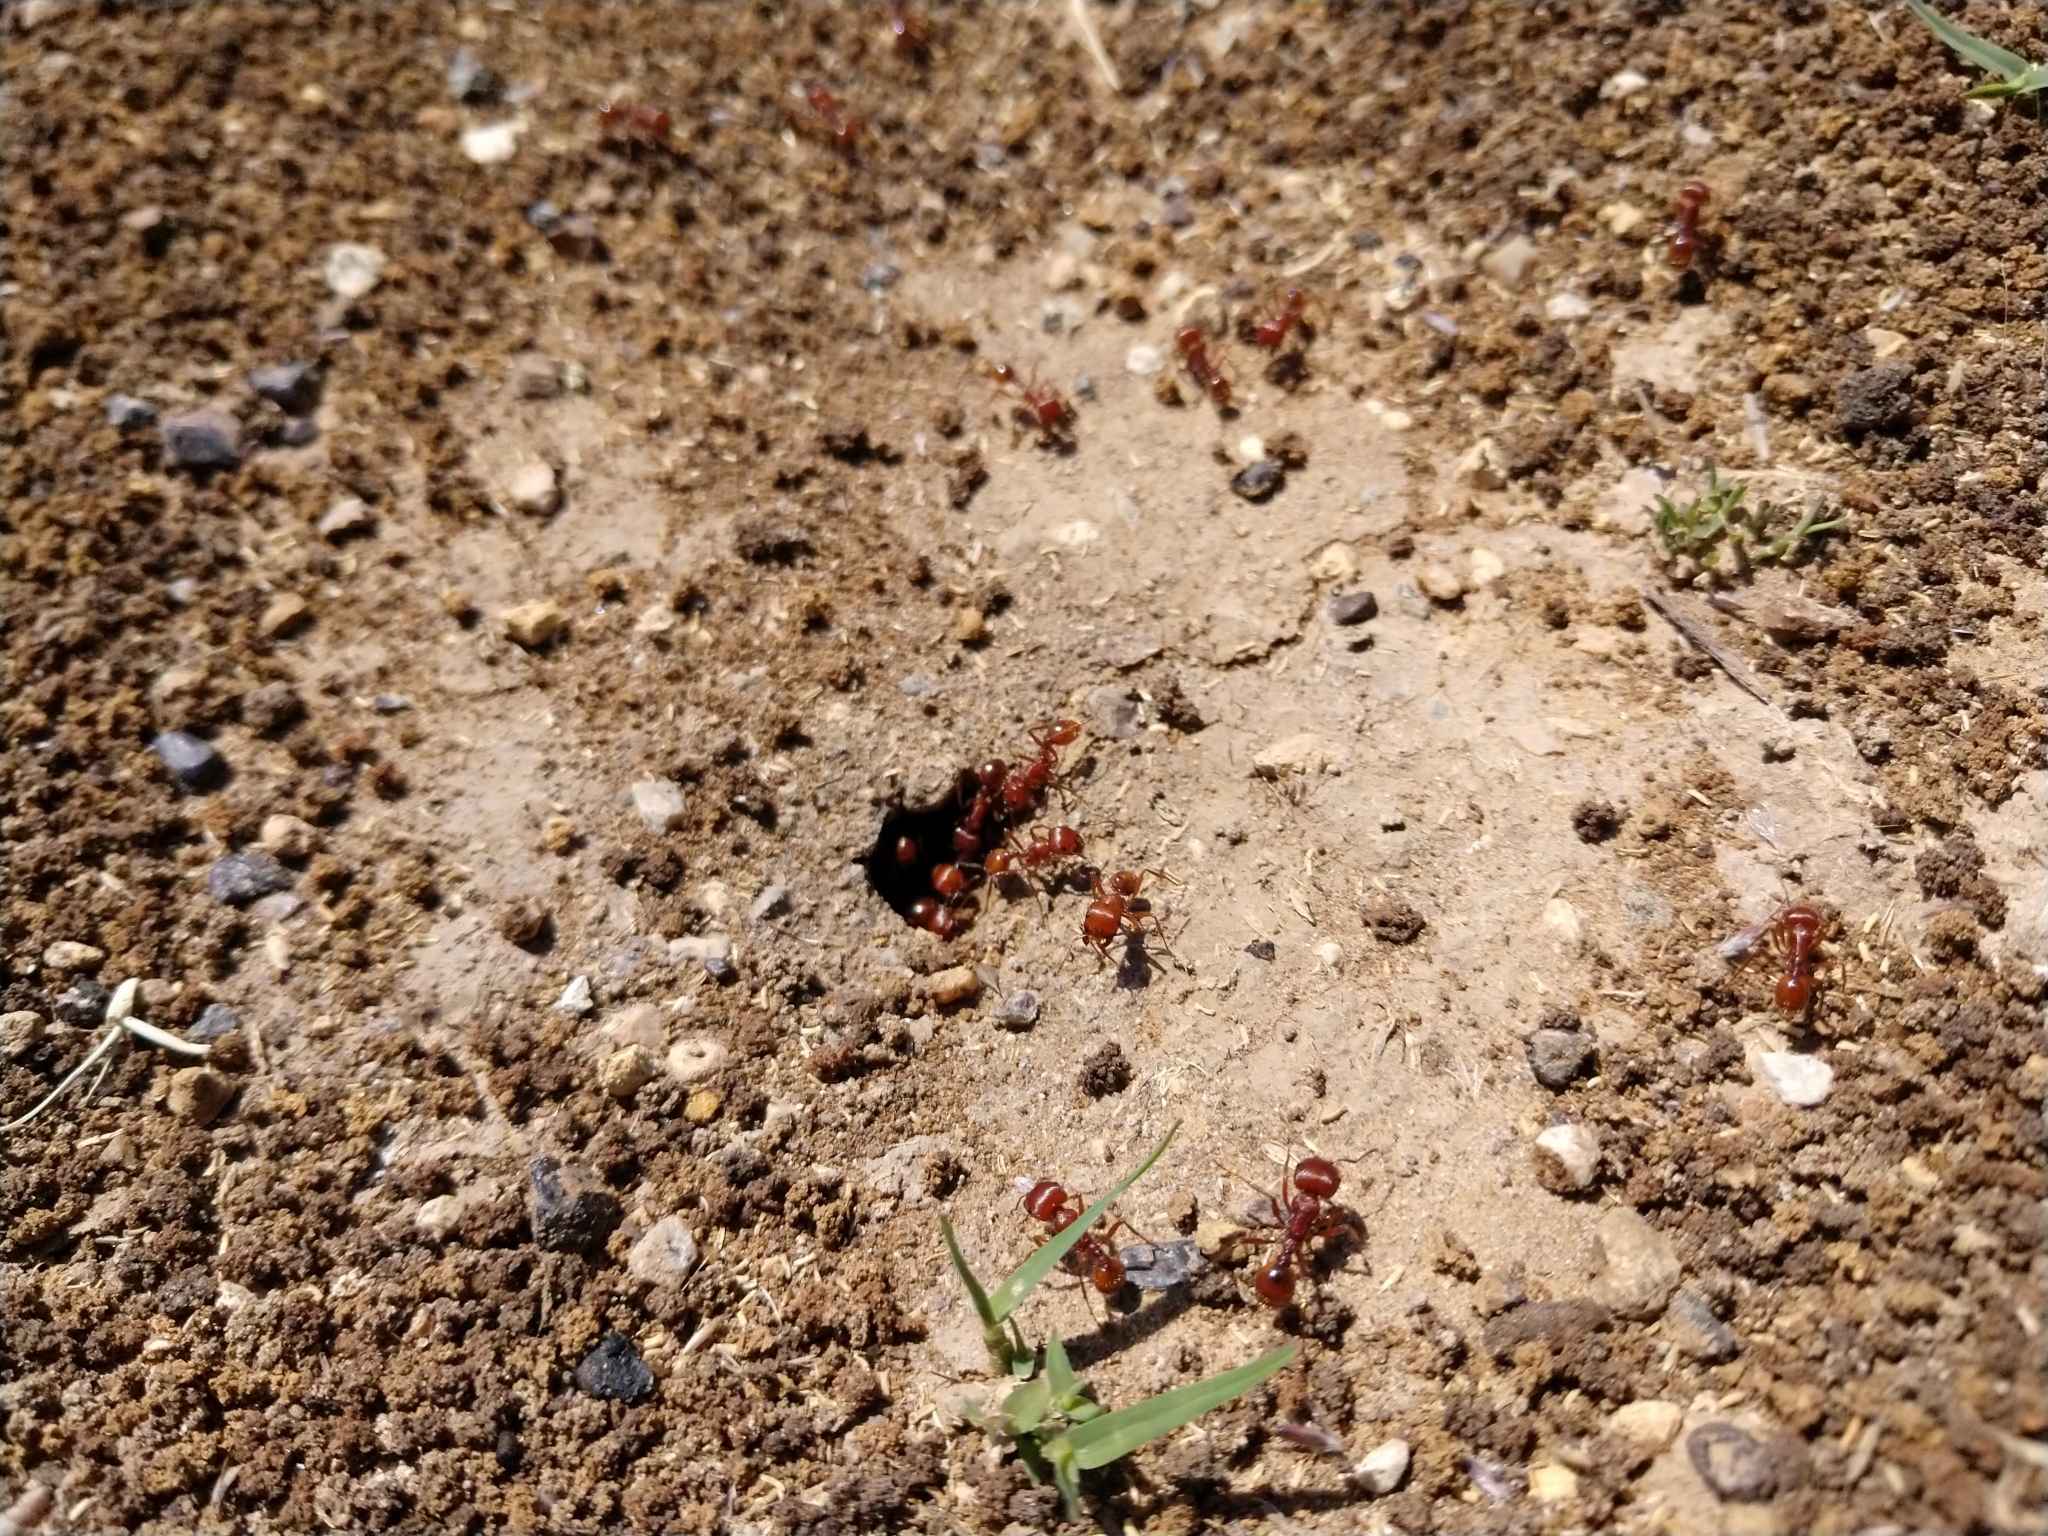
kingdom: Animalia
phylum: Arthropoda
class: Insecta
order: Hymenoptera
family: Formicidae
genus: Pogonomyrmex
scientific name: Pogonomyrmex barbatus
